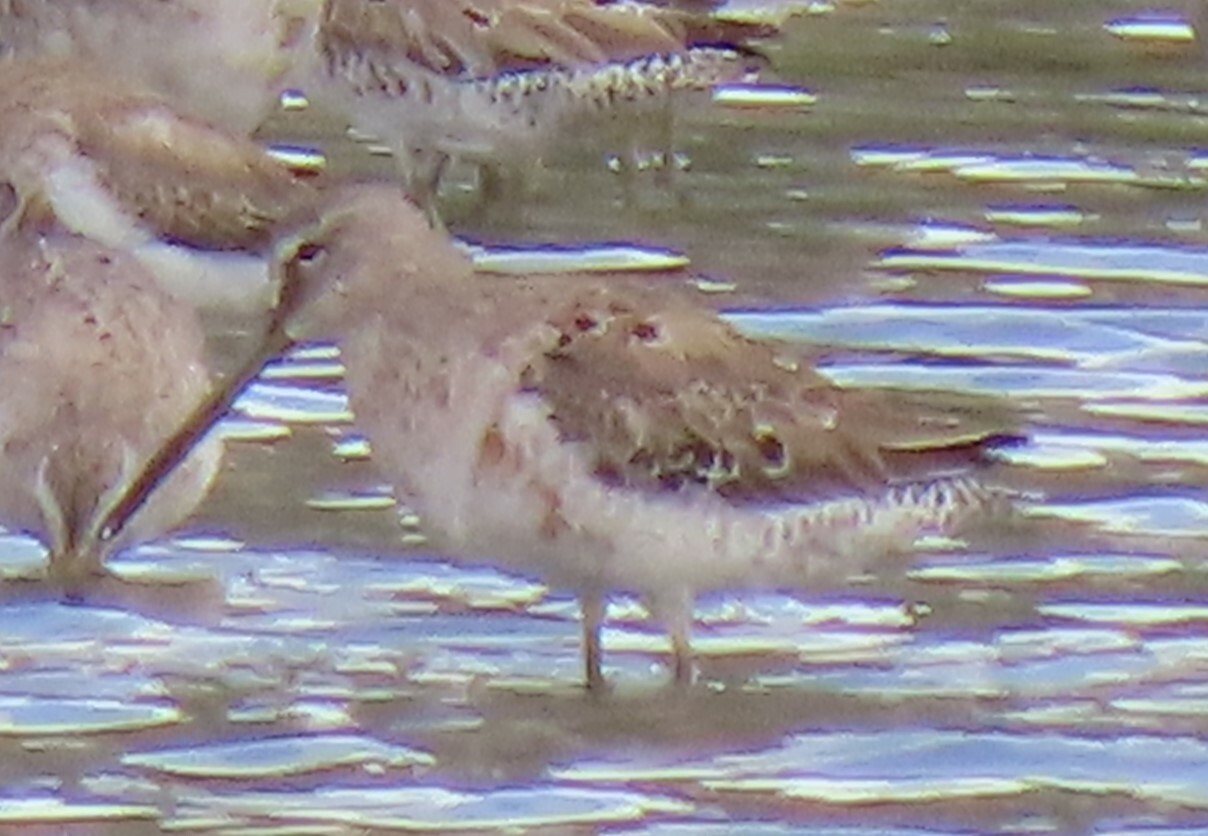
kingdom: Animalia
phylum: Chordata
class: Aves
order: Charadriiformes
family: Scolopacidae
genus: Limnodromus
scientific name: Limnodromus griseus
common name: Short-billed dowitcher
